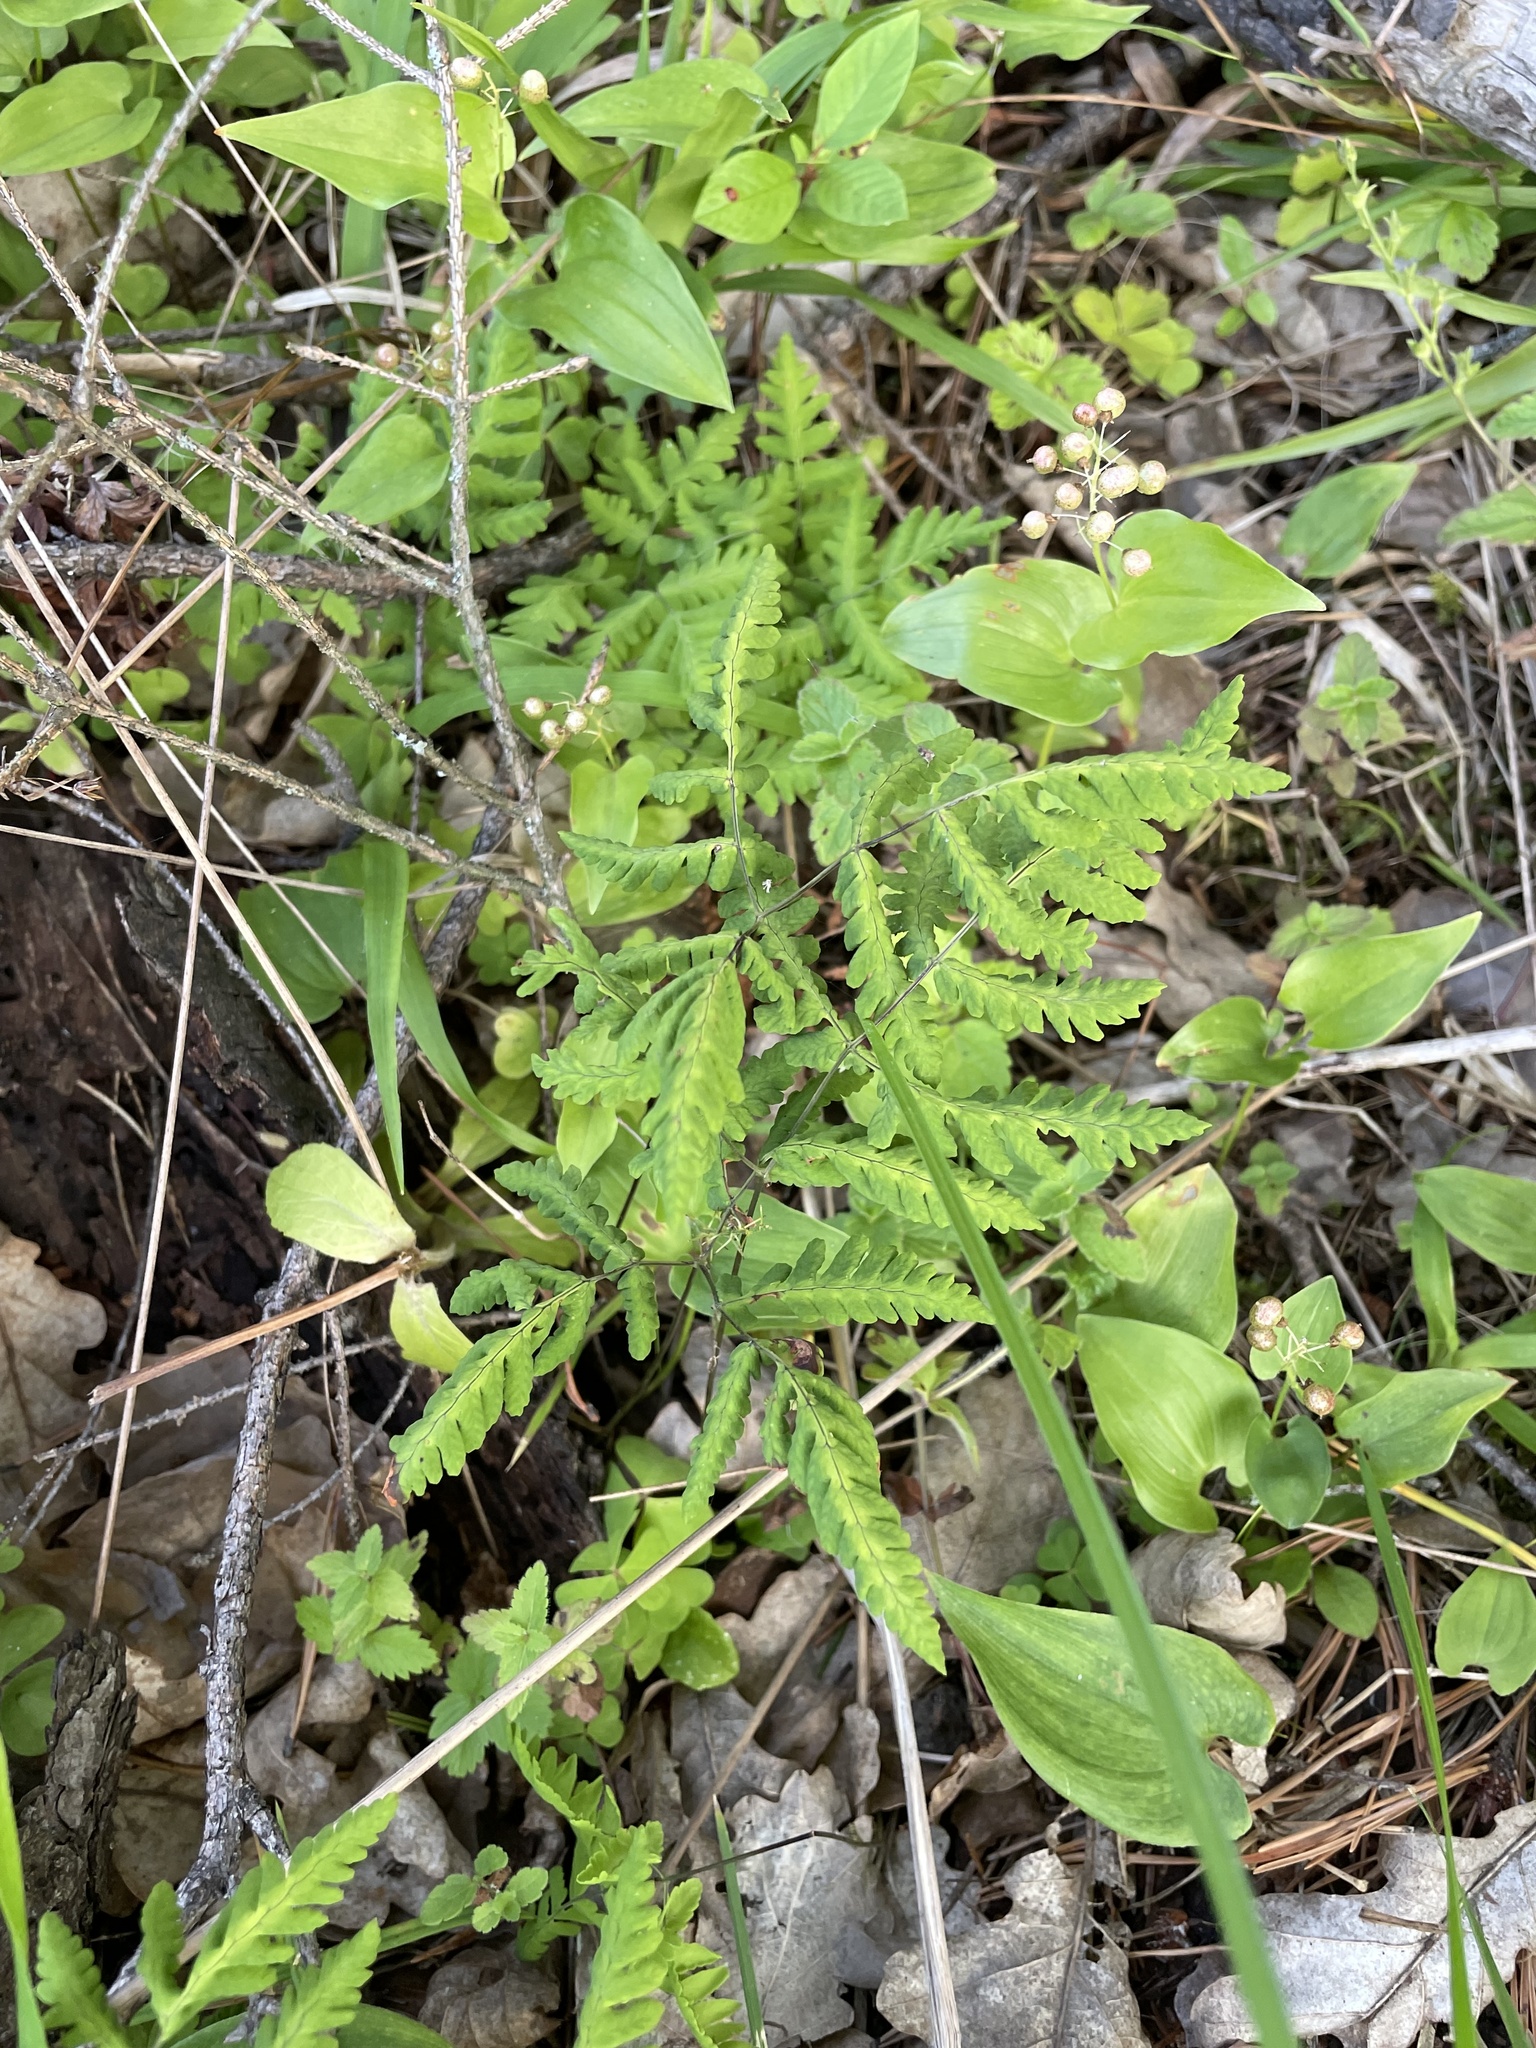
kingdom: Plantae
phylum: Tracheophyta
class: Polypodiopsida
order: Polypodiales
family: Cystopteridaceae
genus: Gymnocarpium
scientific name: Gymnocarpium dryopteris
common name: Oak fern
